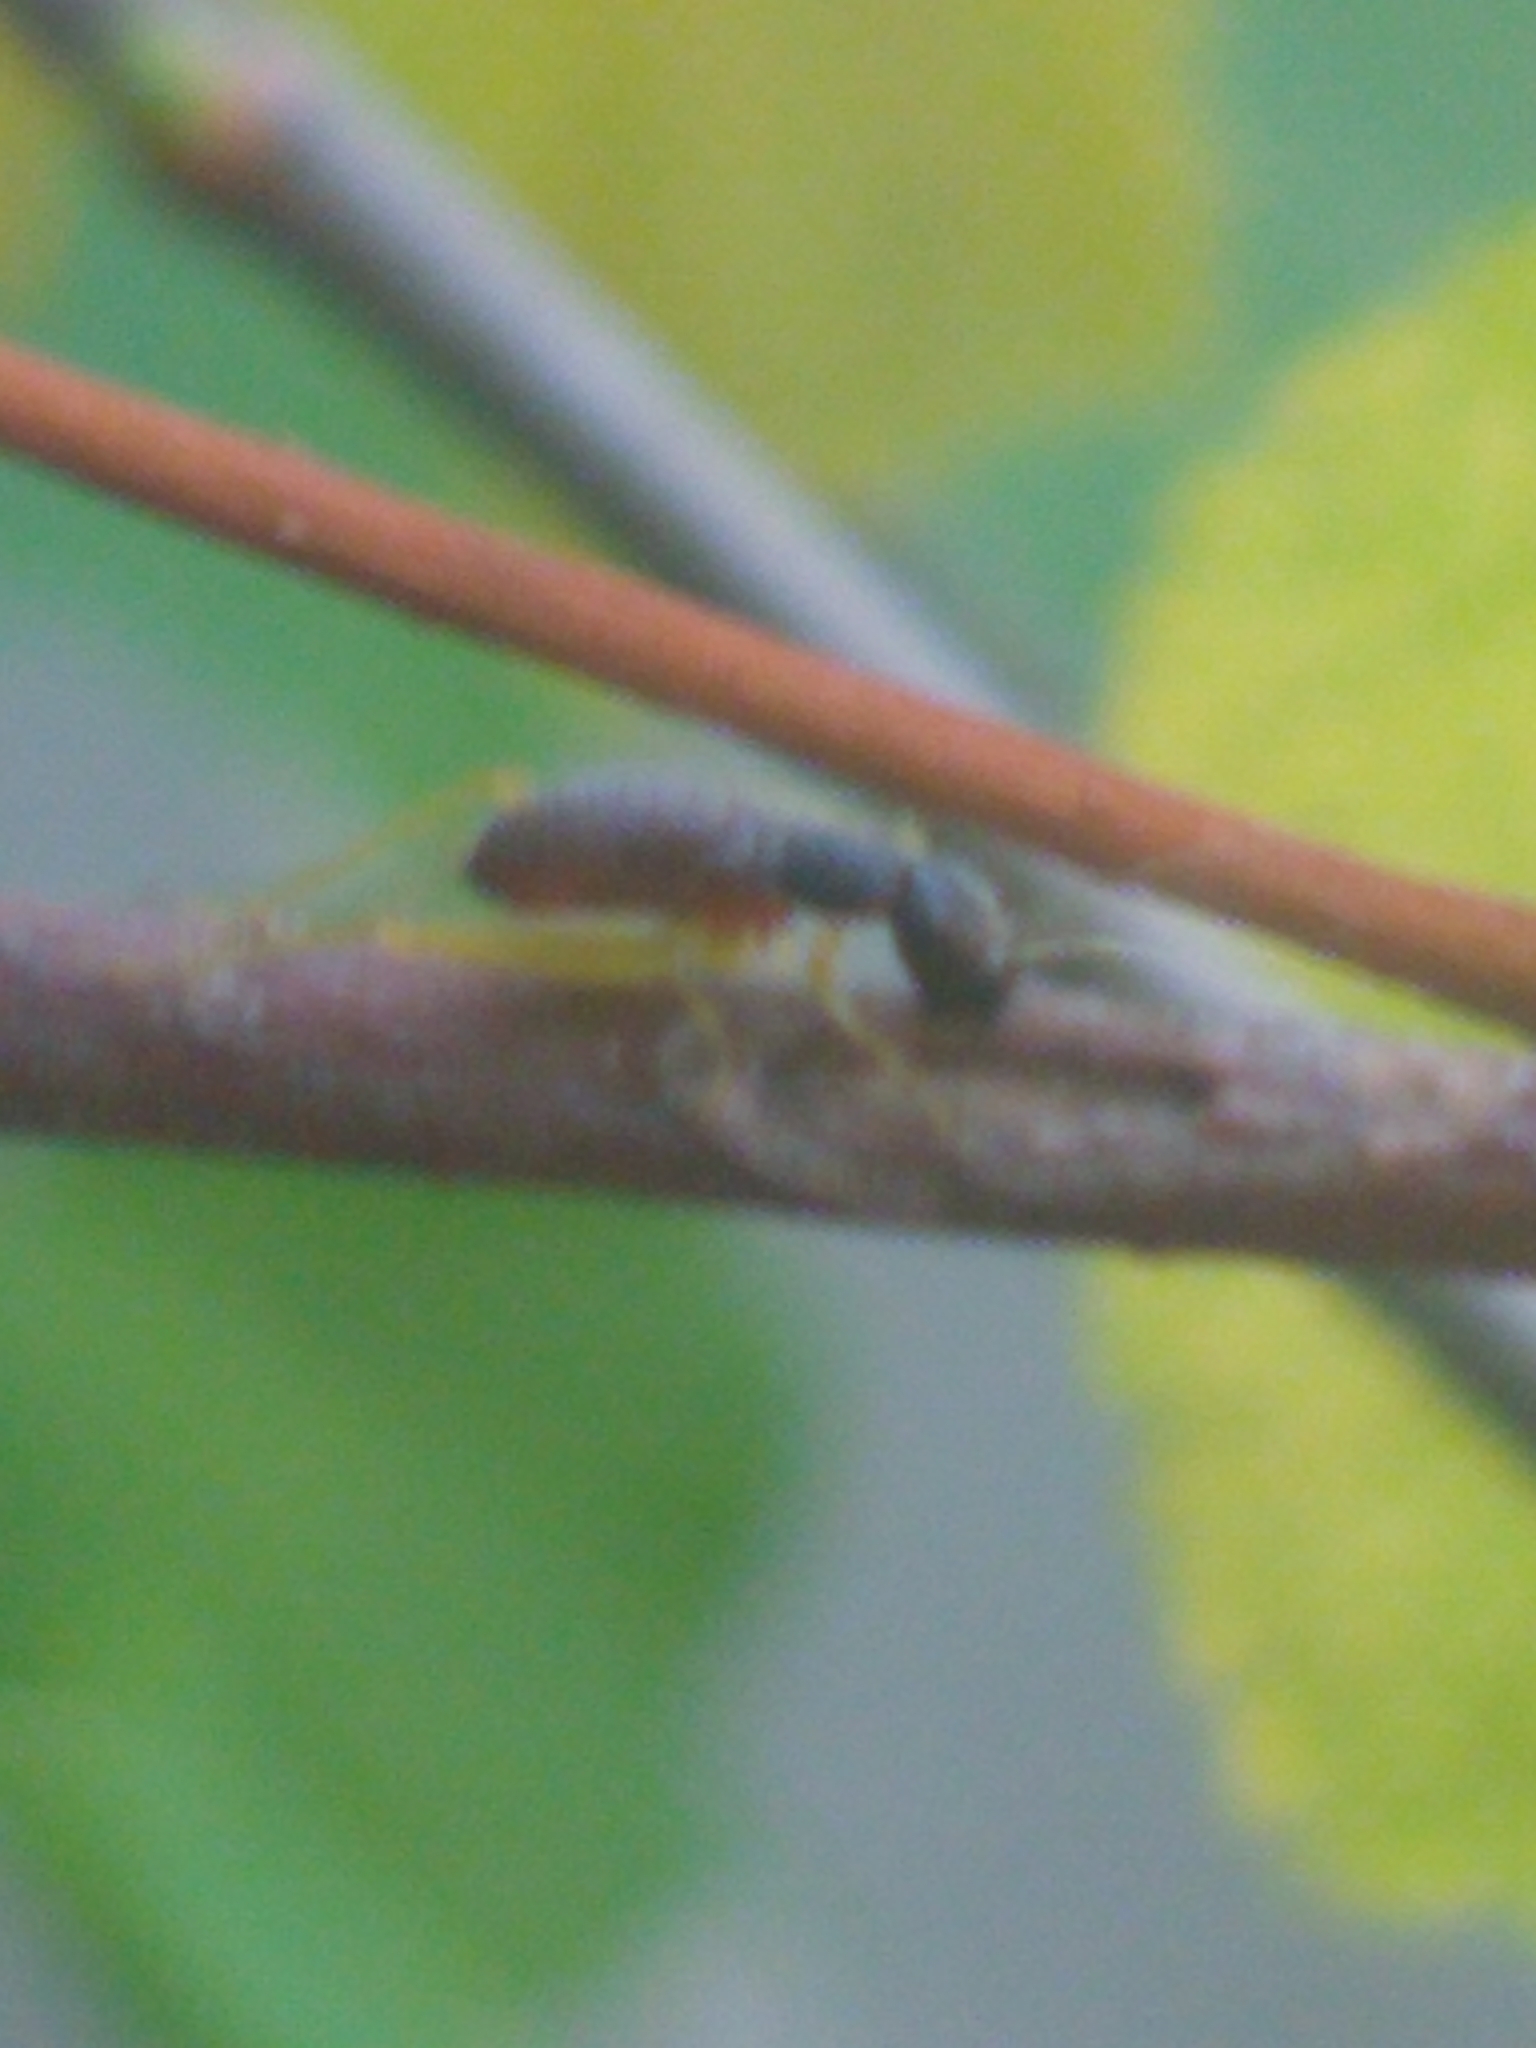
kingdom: Animalia
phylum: Arthropoda
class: Insecta
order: Orthoptera
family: Trigonidiidae
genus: Phyllopalpus
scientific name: Phyllopalpus pulchellus
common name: Handsome trig
